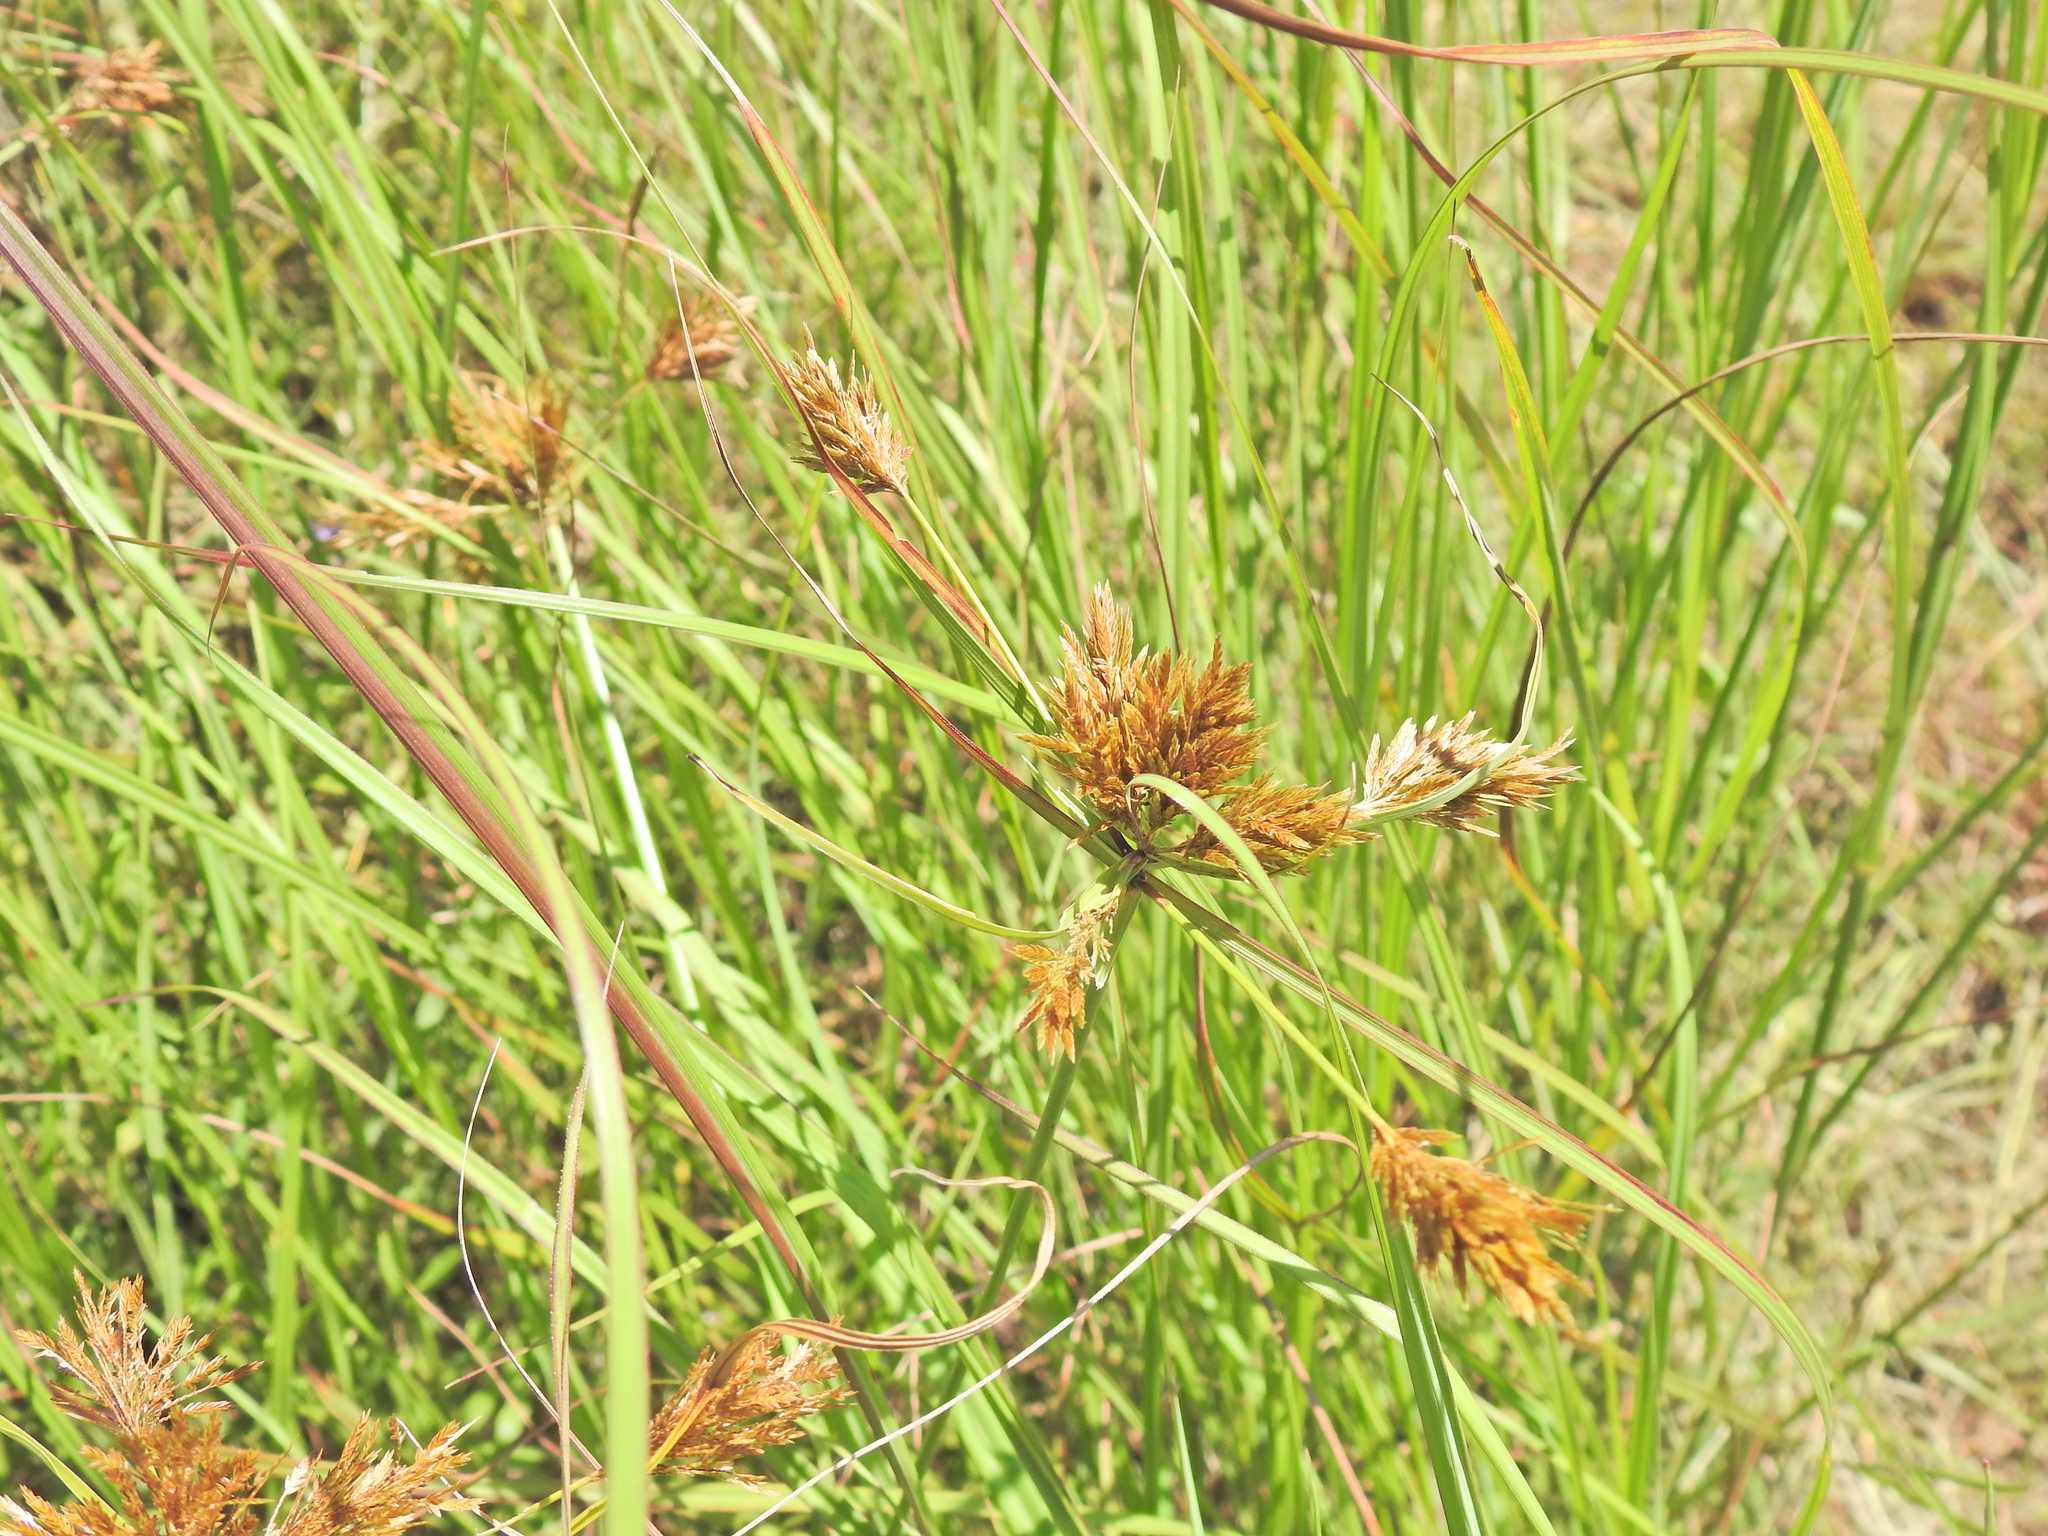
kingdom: Plantae
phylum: Tracheophyta
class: Liliopsida
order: Poales
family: Cyperaceae
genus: Cyperus
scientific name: Cyperus polystachyos
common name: Bunchy flat sedge
